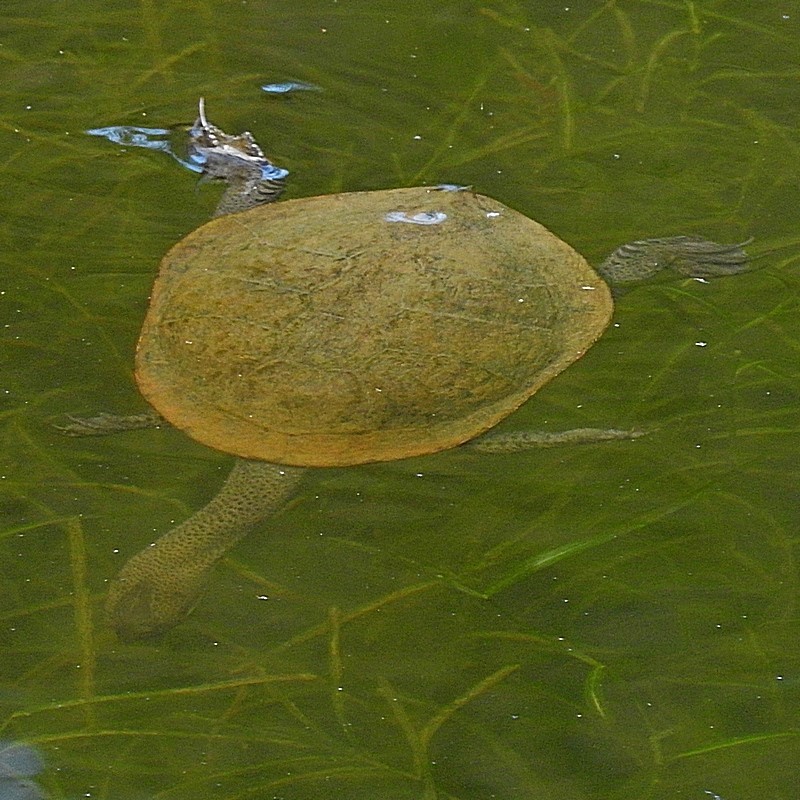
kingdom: Animalia
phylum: Chordata
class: Testudines
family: Chelidae
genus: Chelodina
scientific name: Chelodina longicollis
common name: Eastern snake-necked turtle
